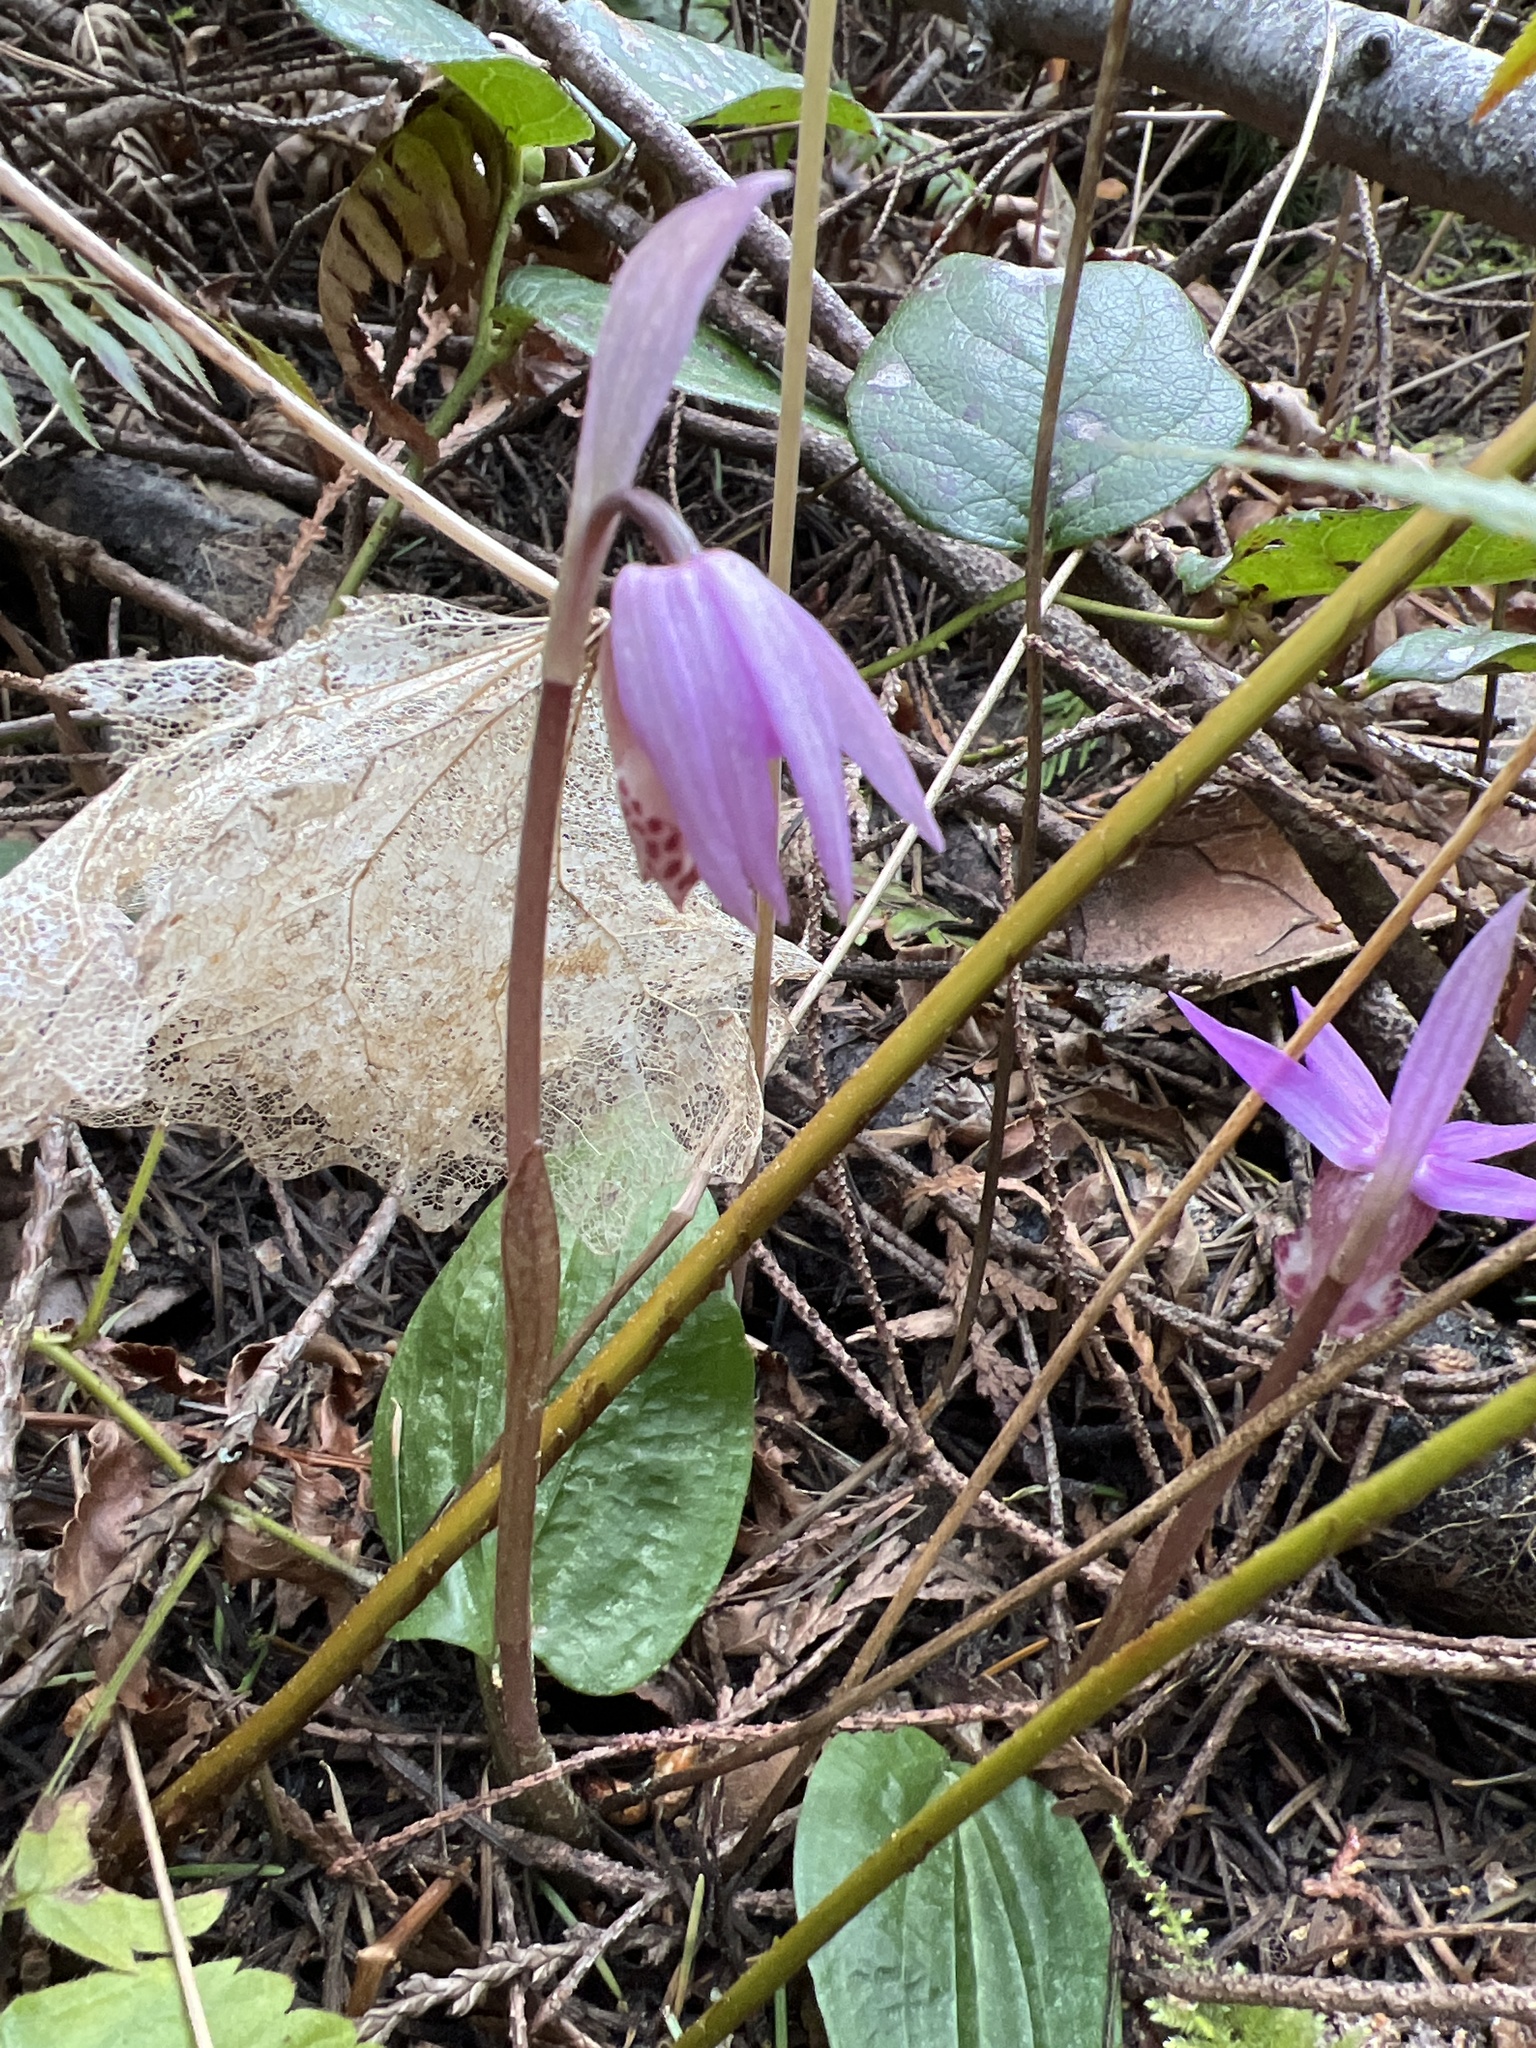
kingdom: Plantae
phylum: Tracheophyta
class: Liliopsida
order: Asparagales
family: Orchidaceae
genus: Calypso
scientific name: Calypso bulbosa
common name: Calypso
